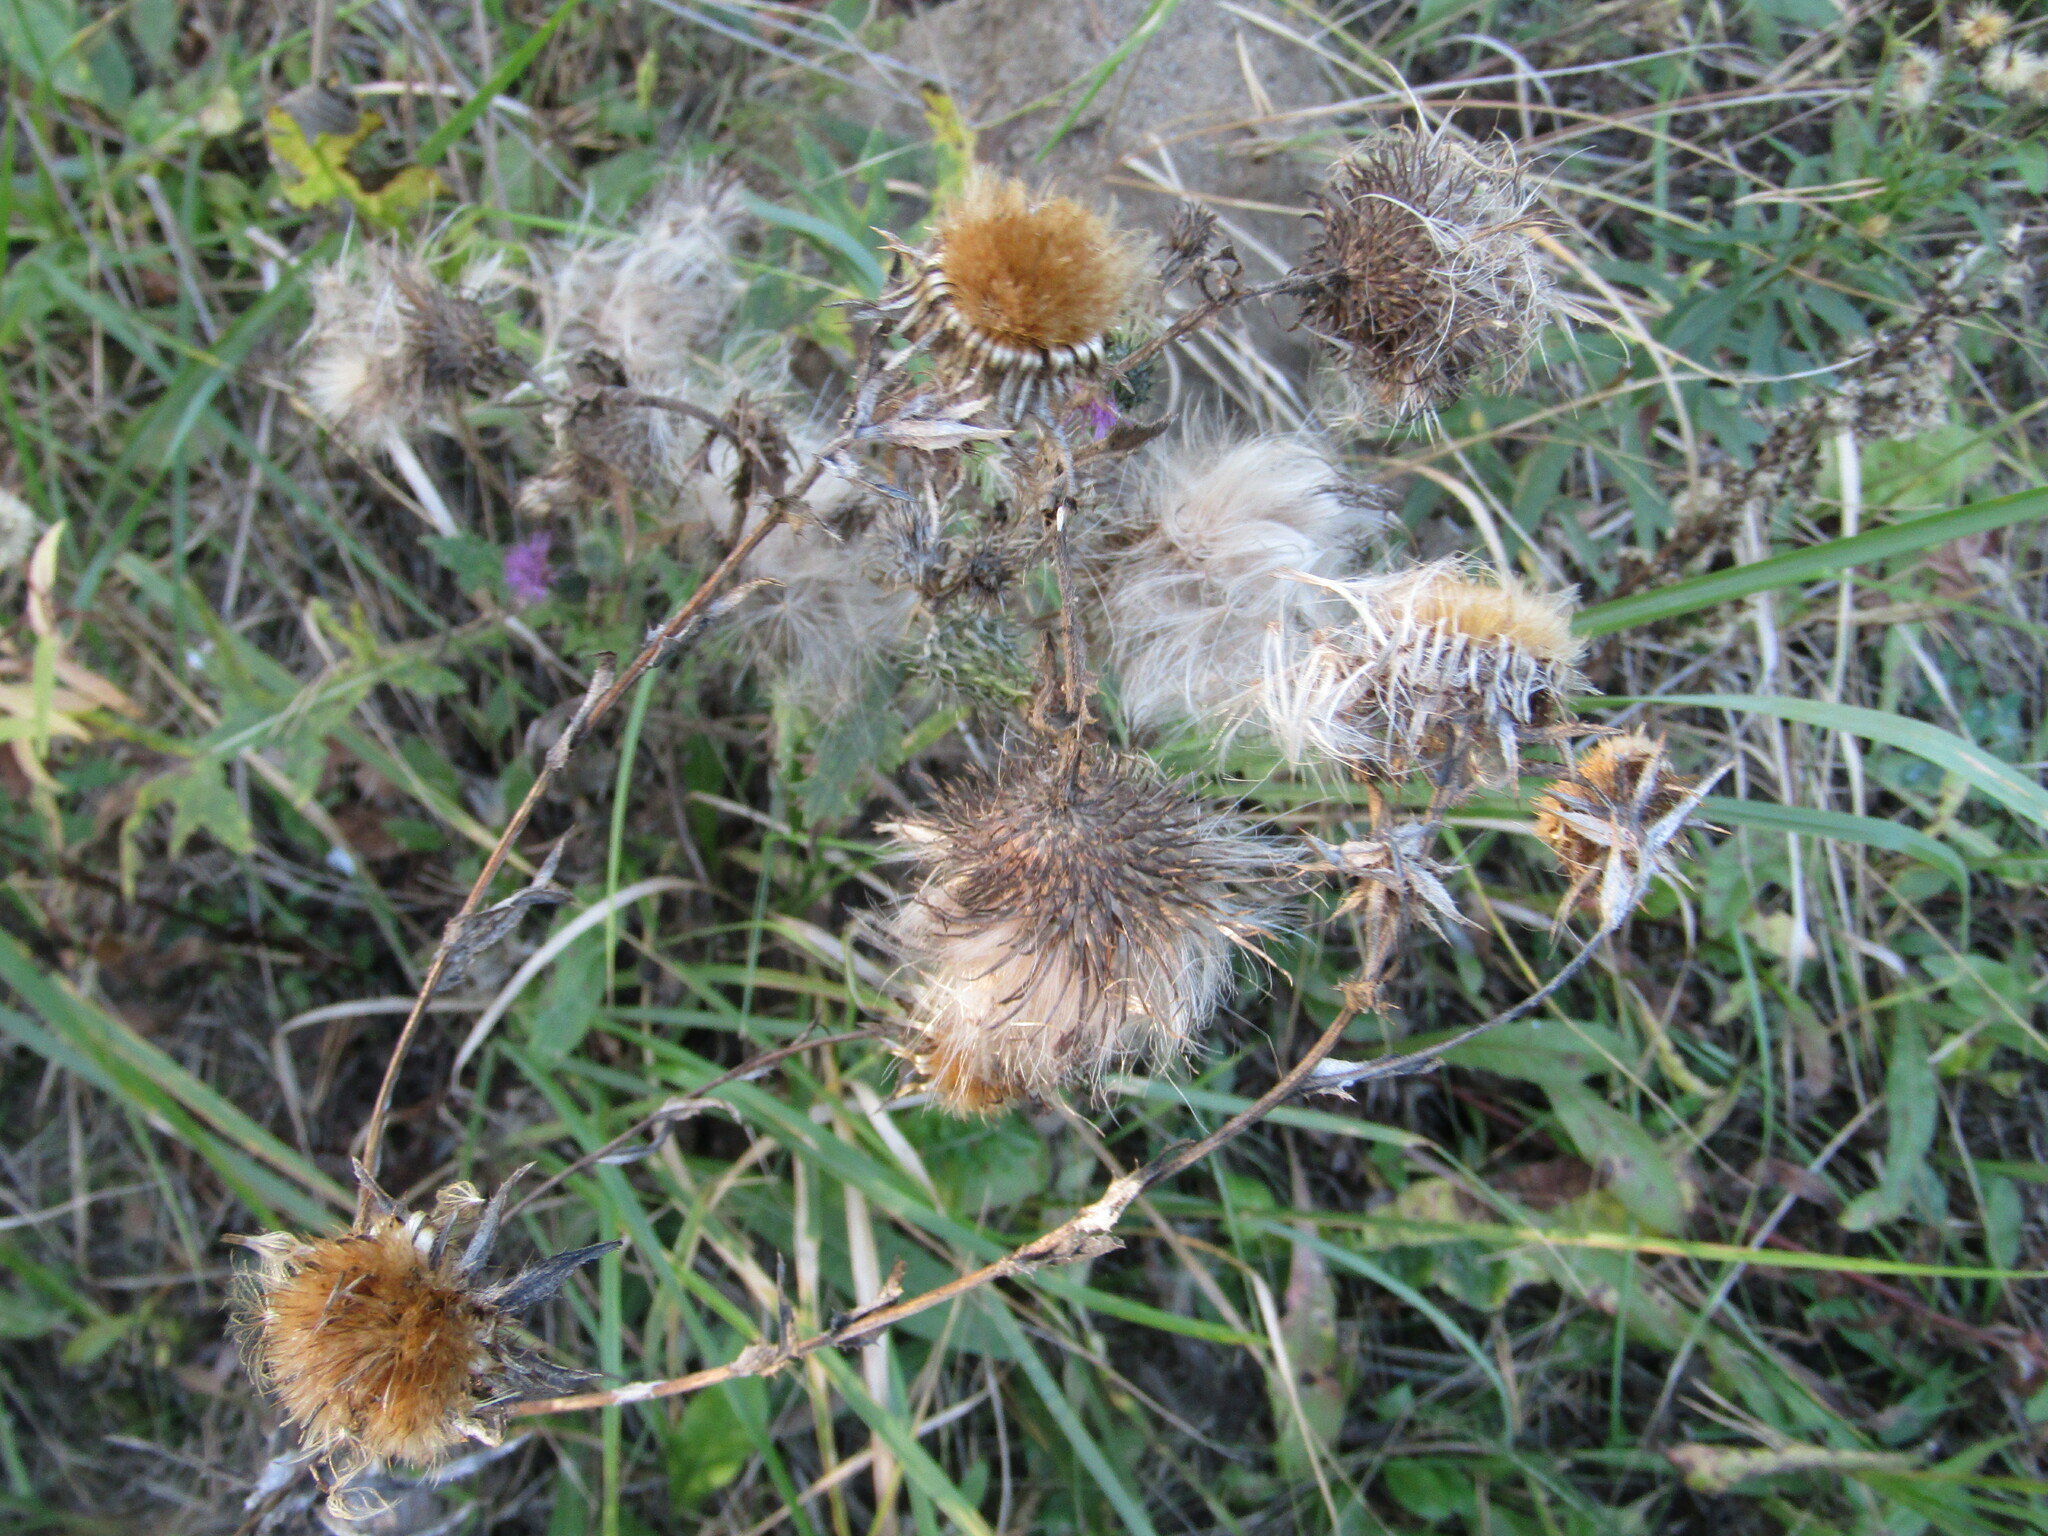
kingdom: Plantae
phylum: Tracheophyta
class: Magnoliopsida
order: Asterales
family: Asteraceae
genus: Carlina
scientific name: Carlina biebersteinii
